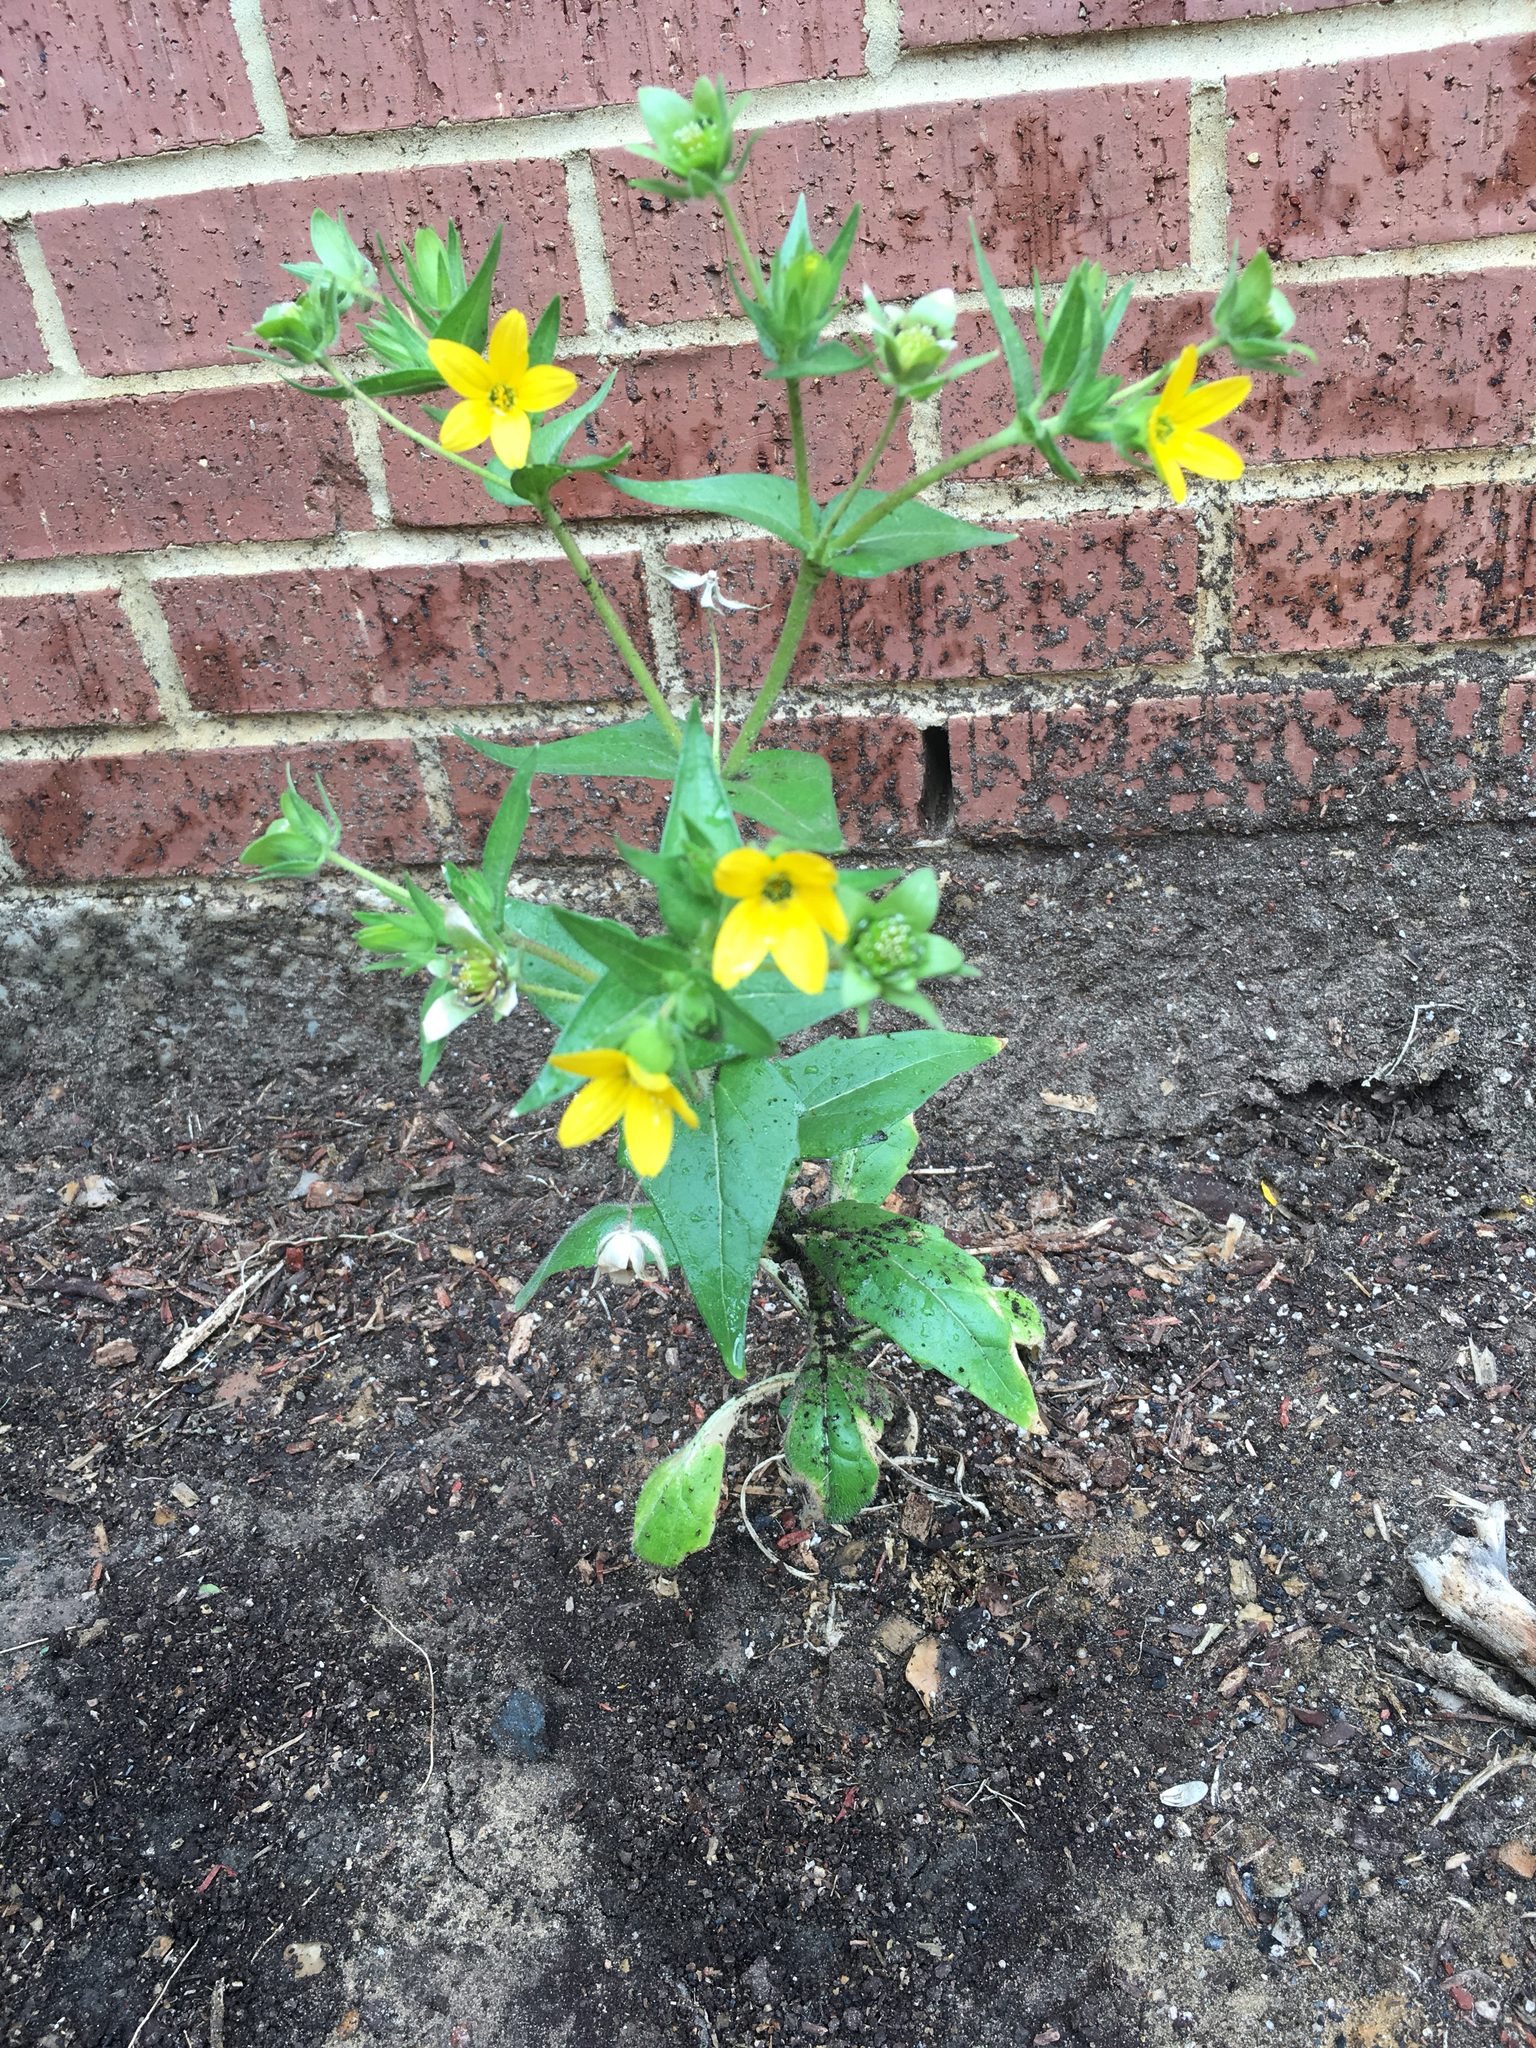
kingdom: Plantae
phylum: Tracheophyta
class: Magnoliopsida
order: Asterales
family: Asteraceae
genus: Lindheimera
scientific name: Lindheimera texana
